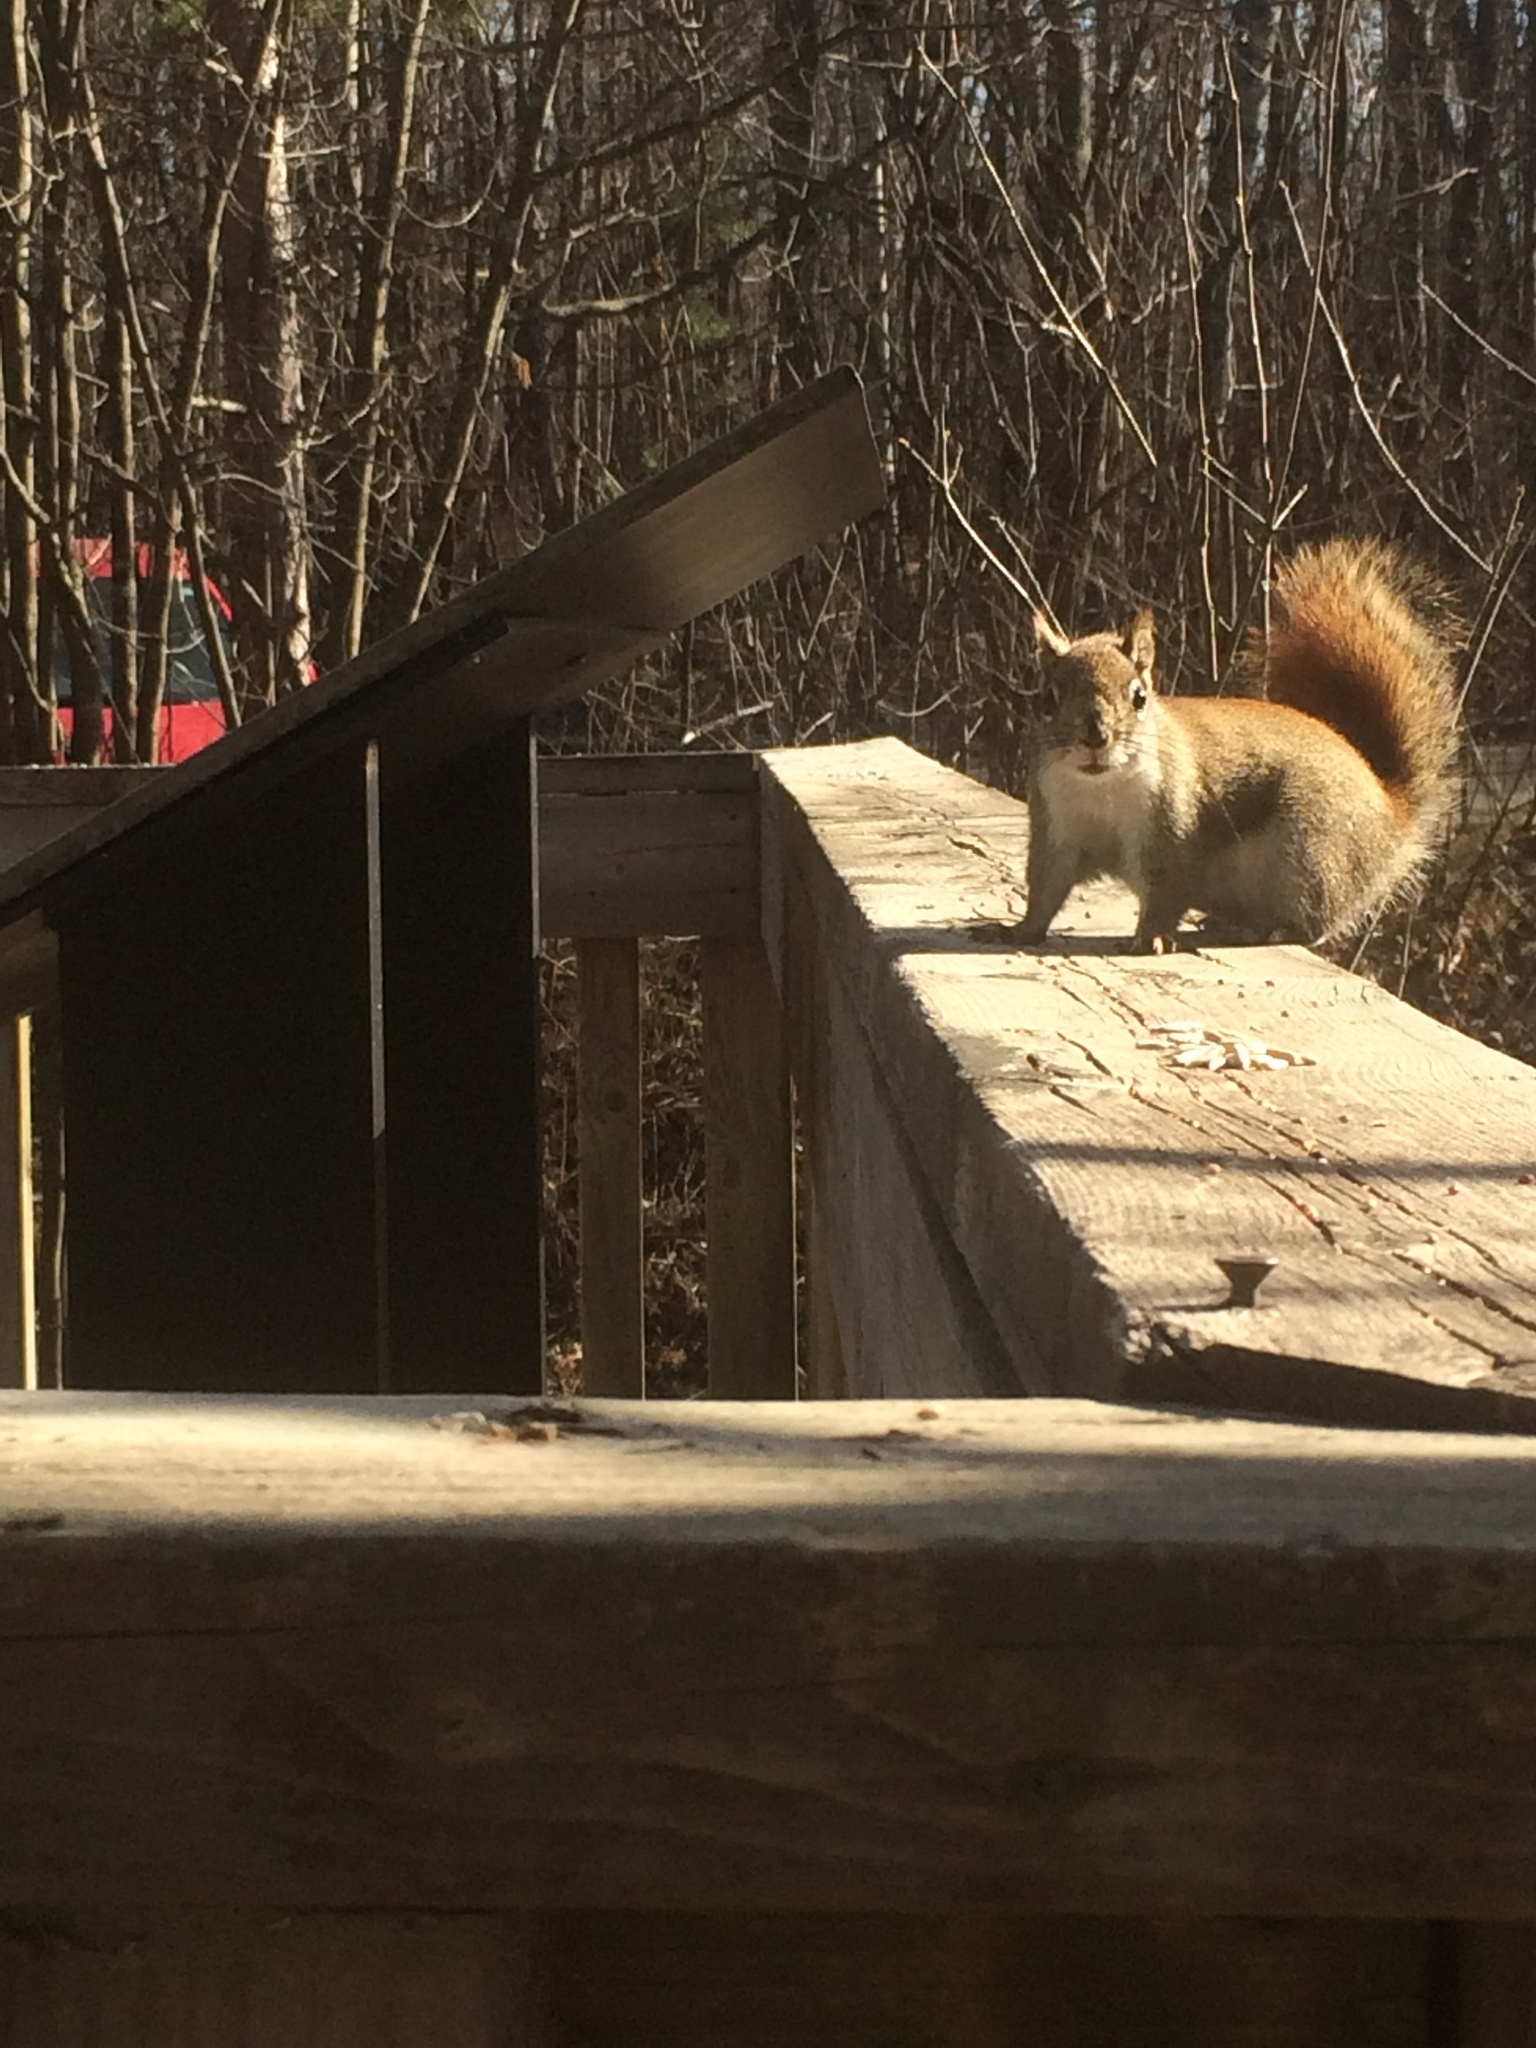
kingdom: Animalia
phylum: Chordata
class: Mammalia
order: Rodentia
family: Sciuridae
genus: Tamiasciurus
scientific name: Tamiasciurus hudsonicus
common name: Red squirrel
